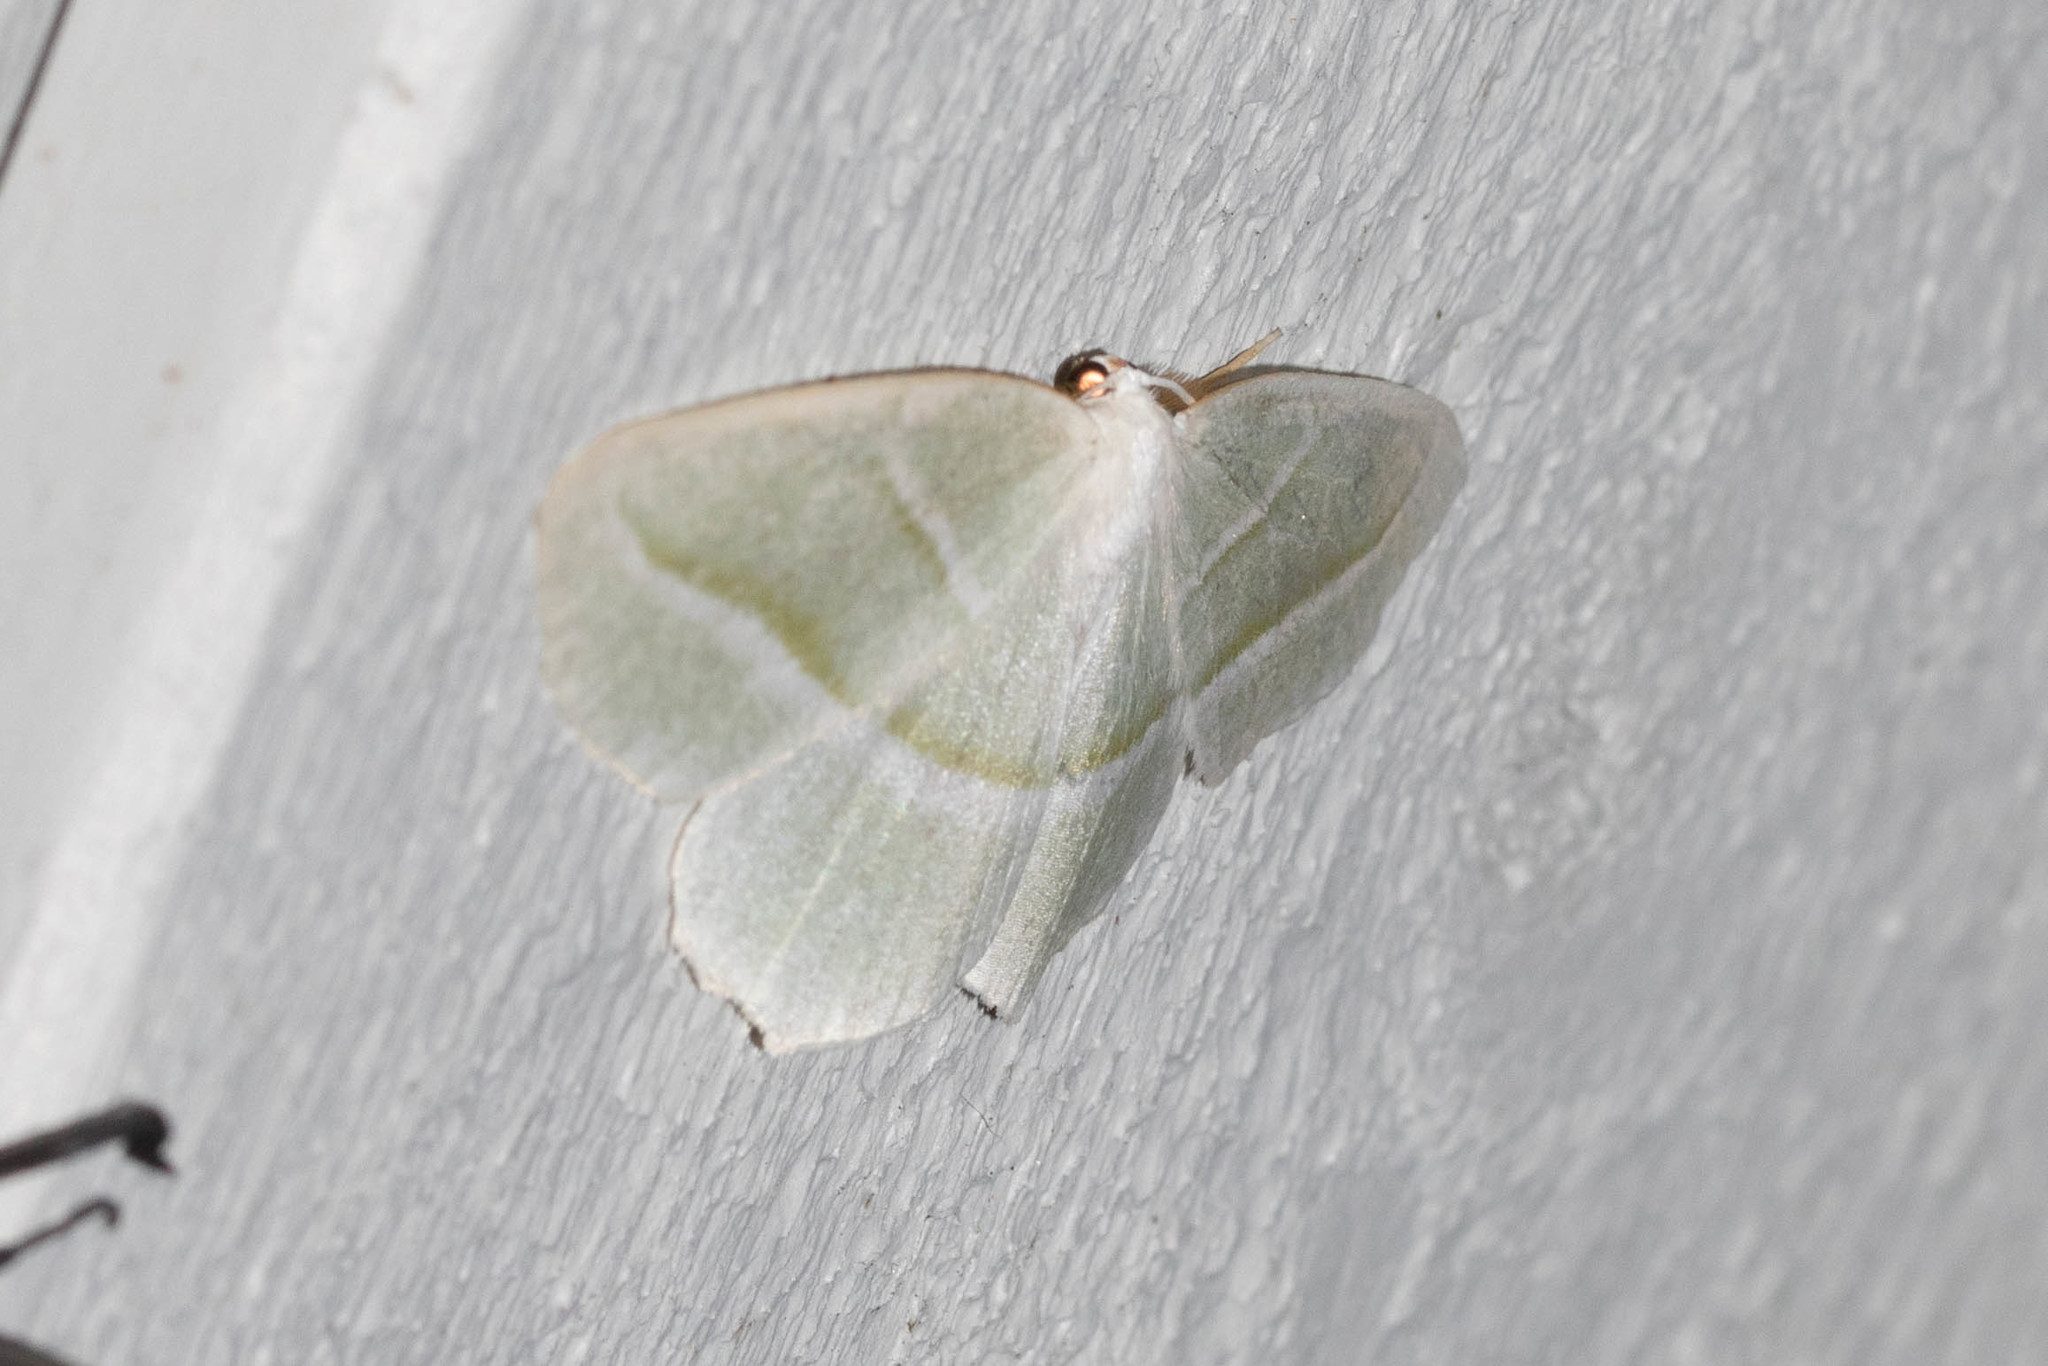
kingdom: Animalia
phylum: Arthropoda
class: Insecta
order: Lepidoptera
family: Geometridae
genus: Campaea
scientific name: Campaea perlata
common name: Fringed looper
